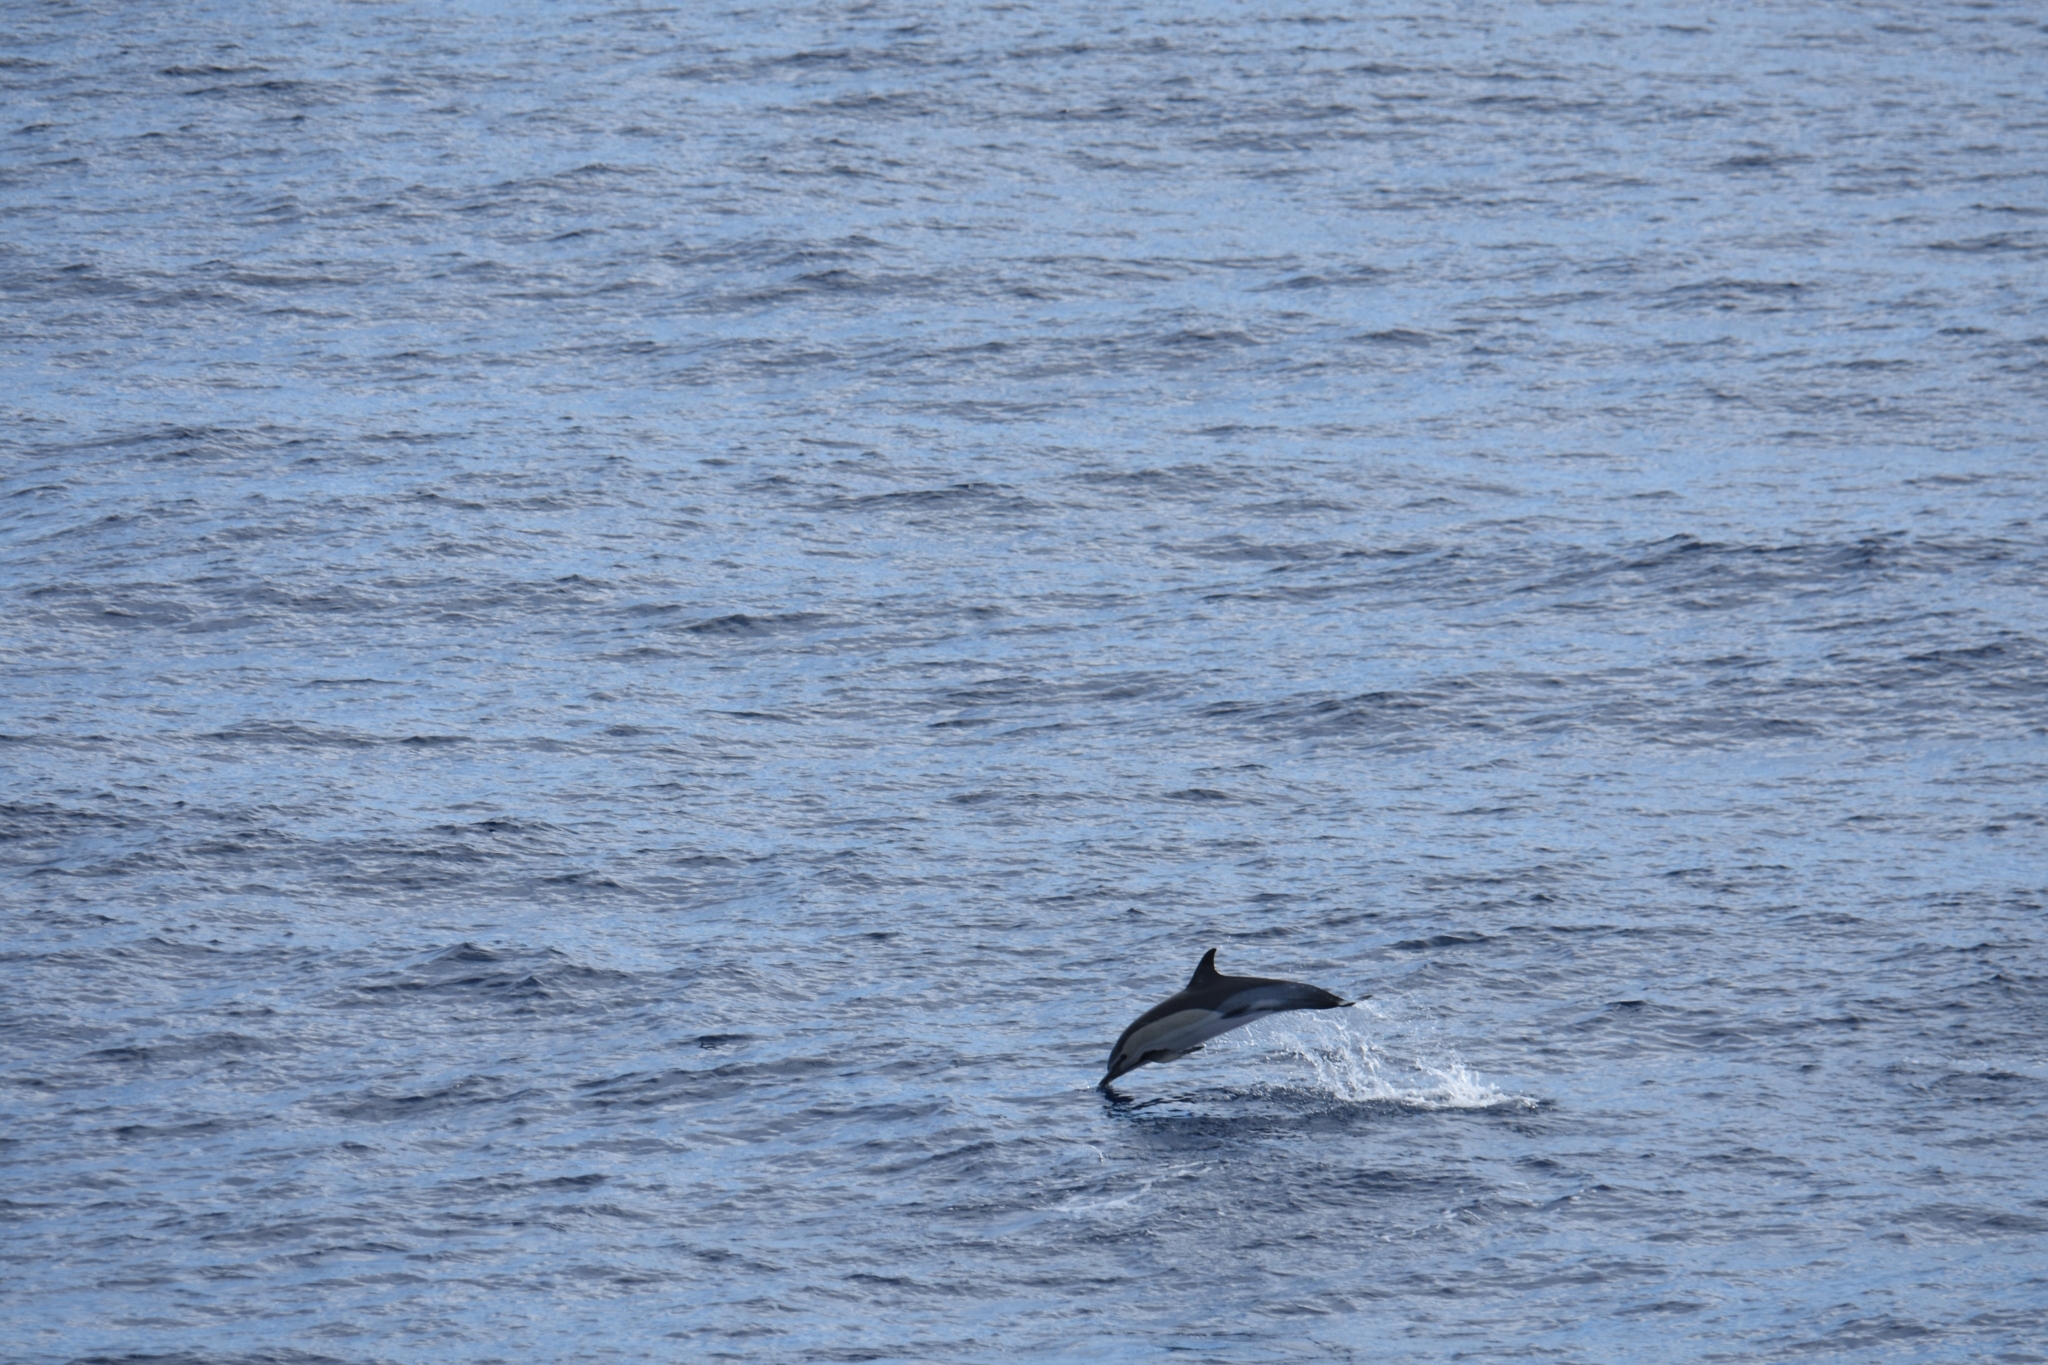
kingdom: Animalia
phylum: Chordata
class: Mammalia
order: Cetacea
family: Delphinidae
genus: Delphinus
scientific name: Delphinus delphis
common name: Common dolphin
